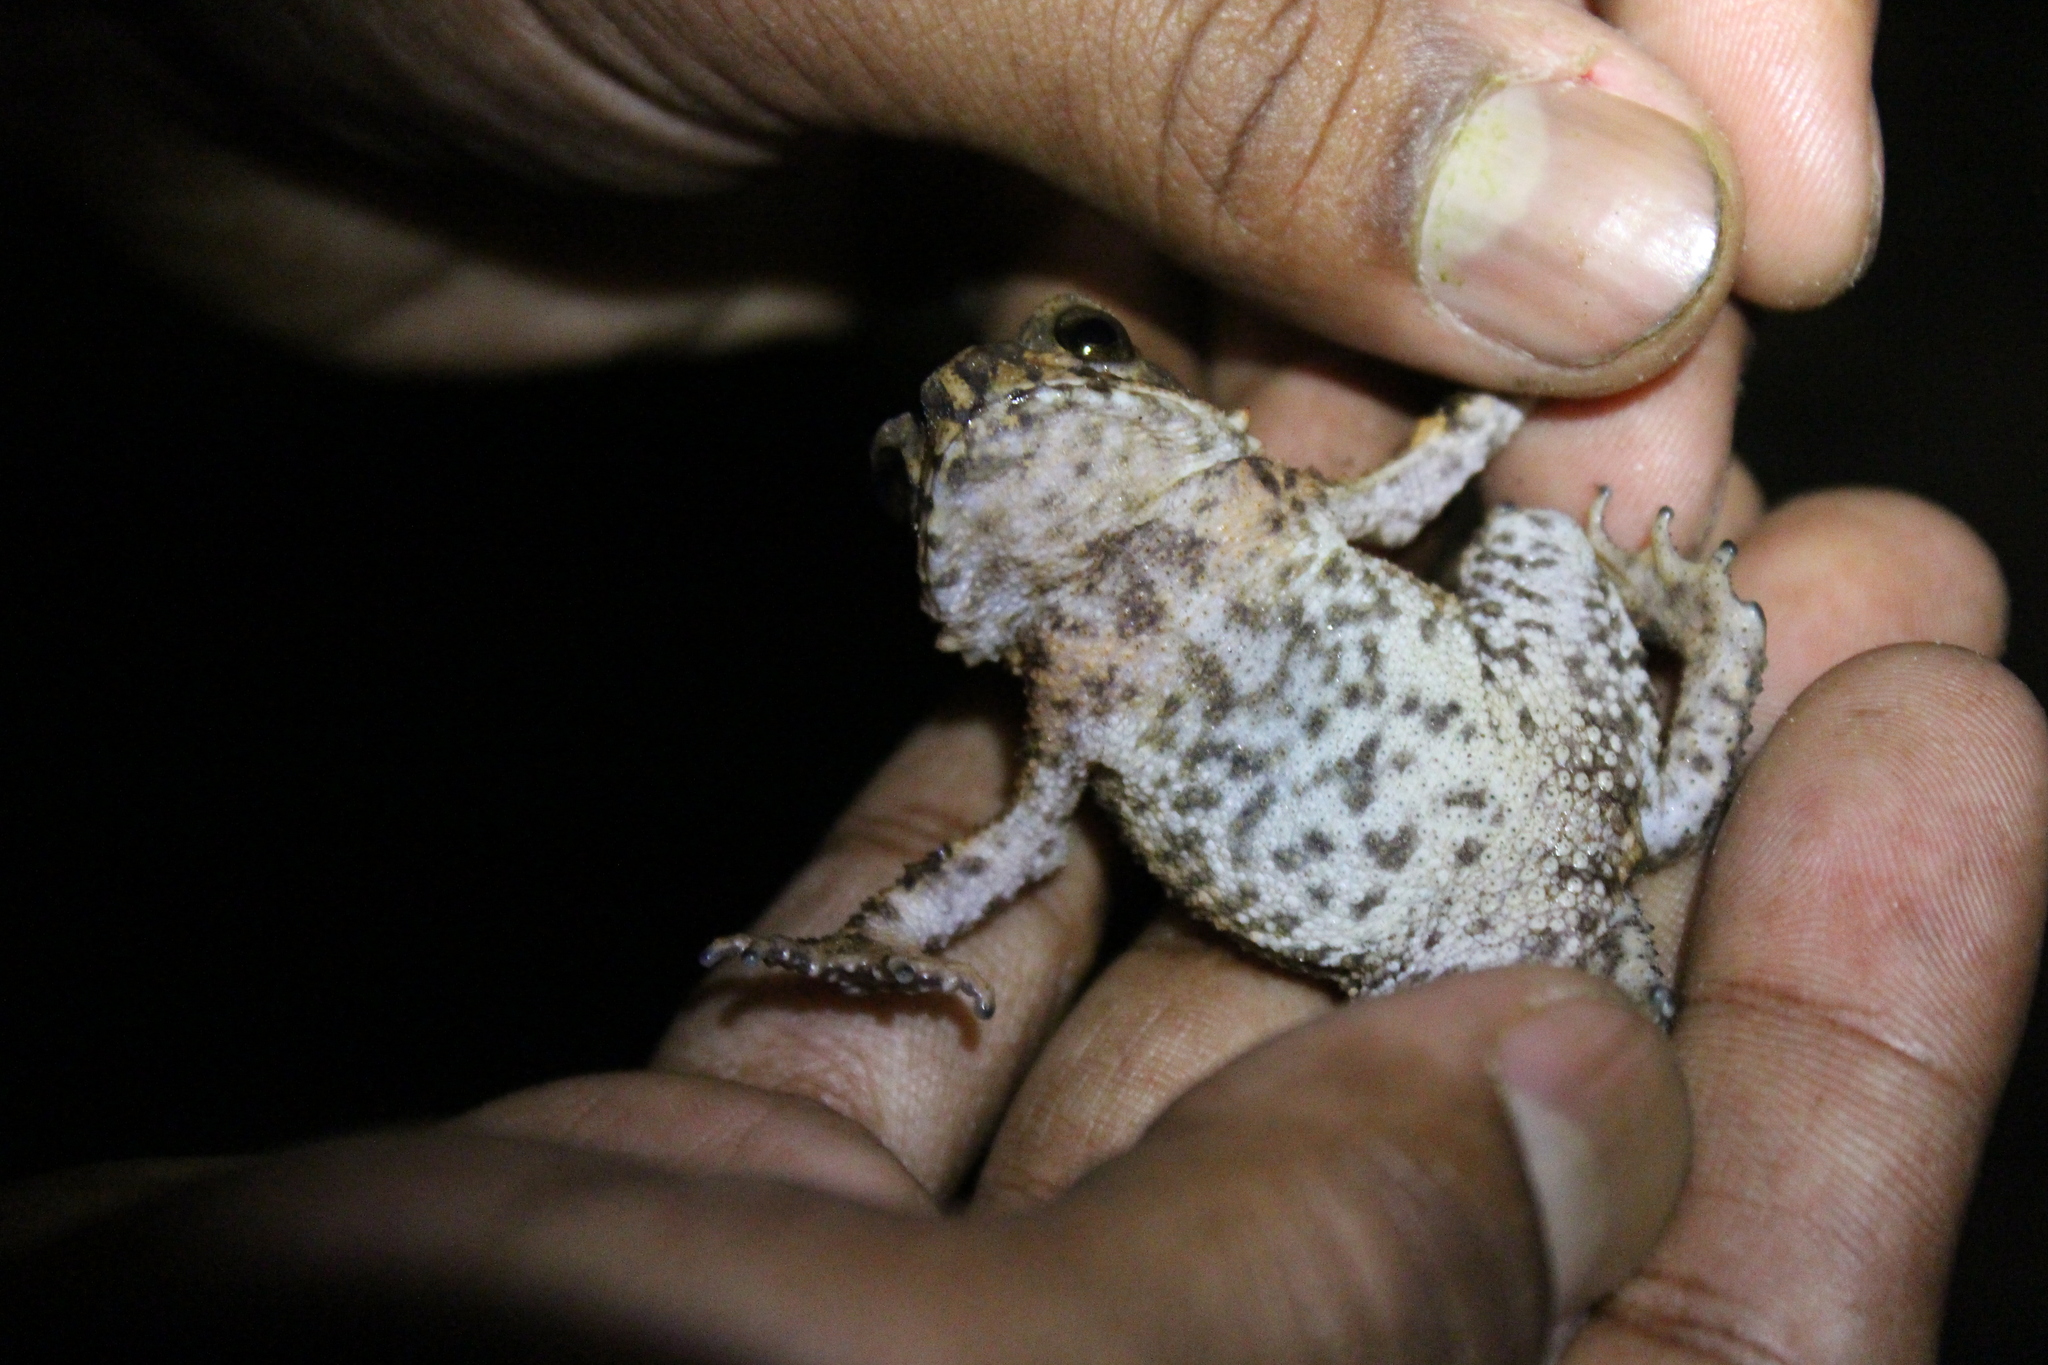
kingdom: Animalia
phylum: Chordata
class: Amphibia
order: Anura
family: Bufonidae
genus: Duttaphrynus
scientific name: Duttaphrynus stuarti
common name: Stuart's toad
